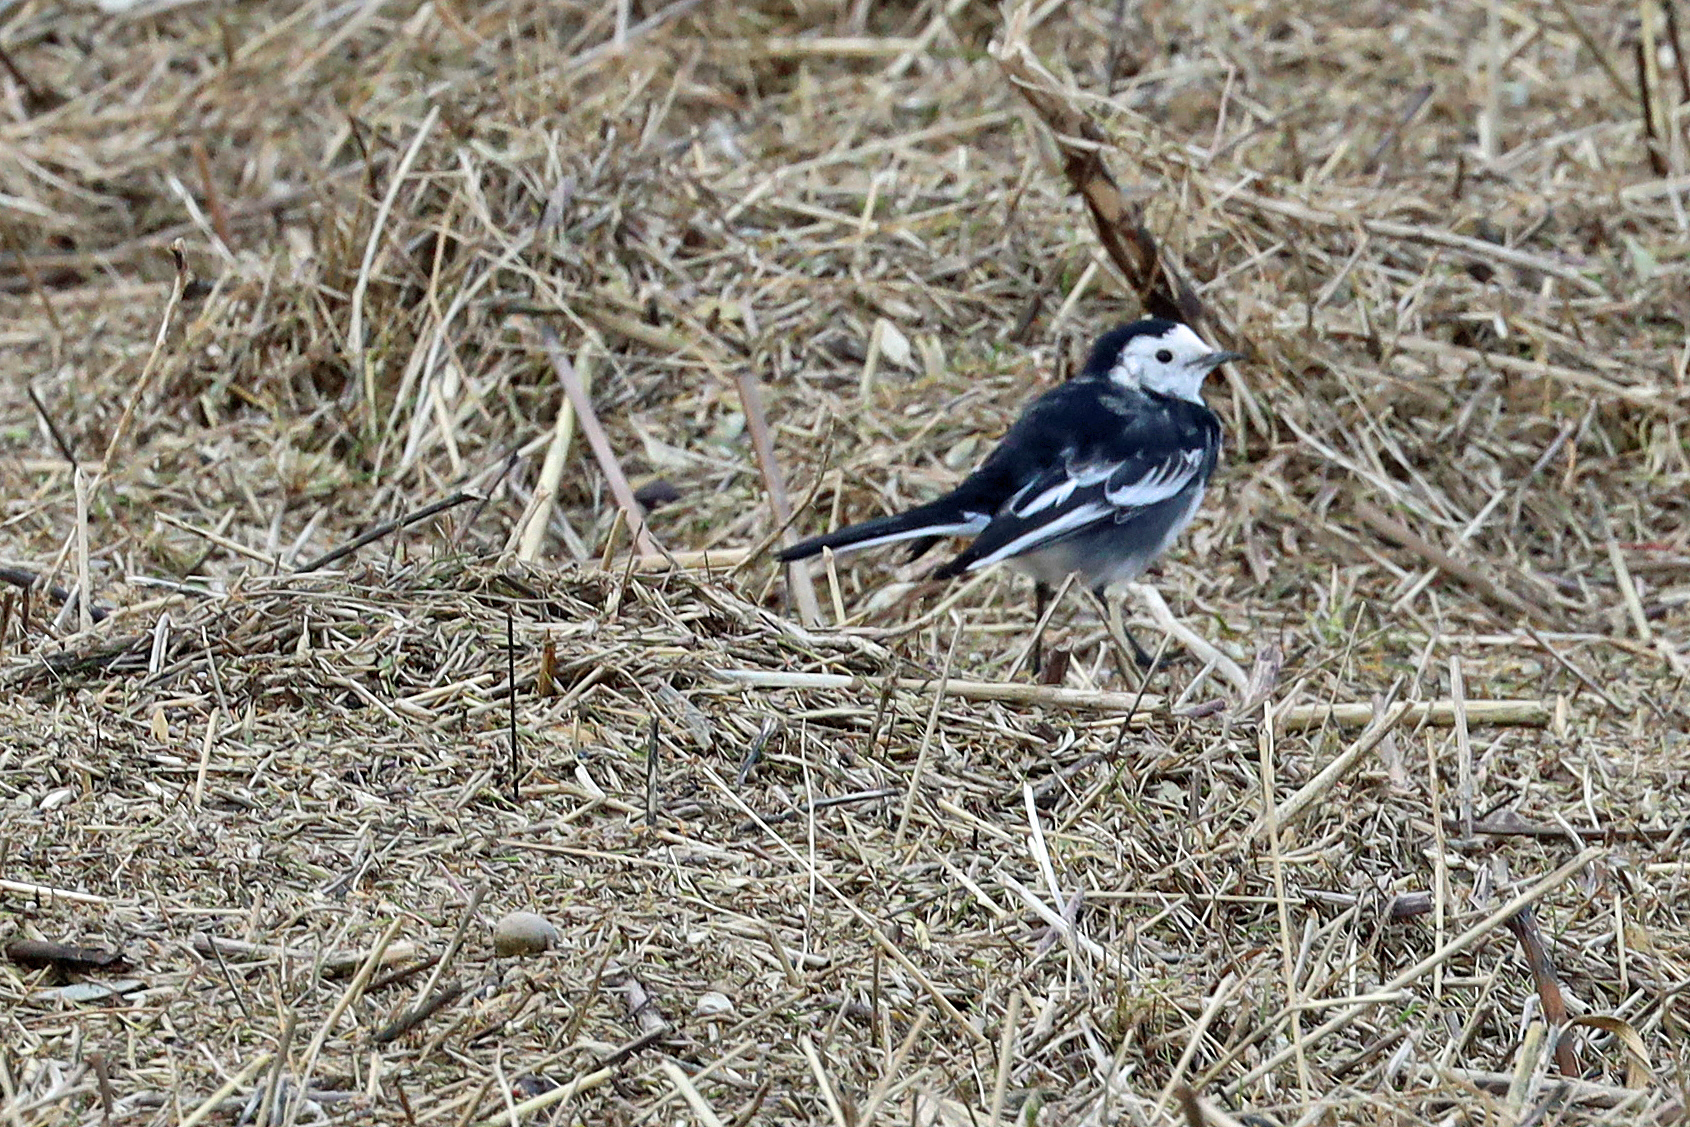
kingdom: Animalia
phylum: Chordata
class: Aves
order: Passeriformes
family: Motacillidae
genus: Motacilla
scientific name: Motacilla alba
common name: White wagtail
